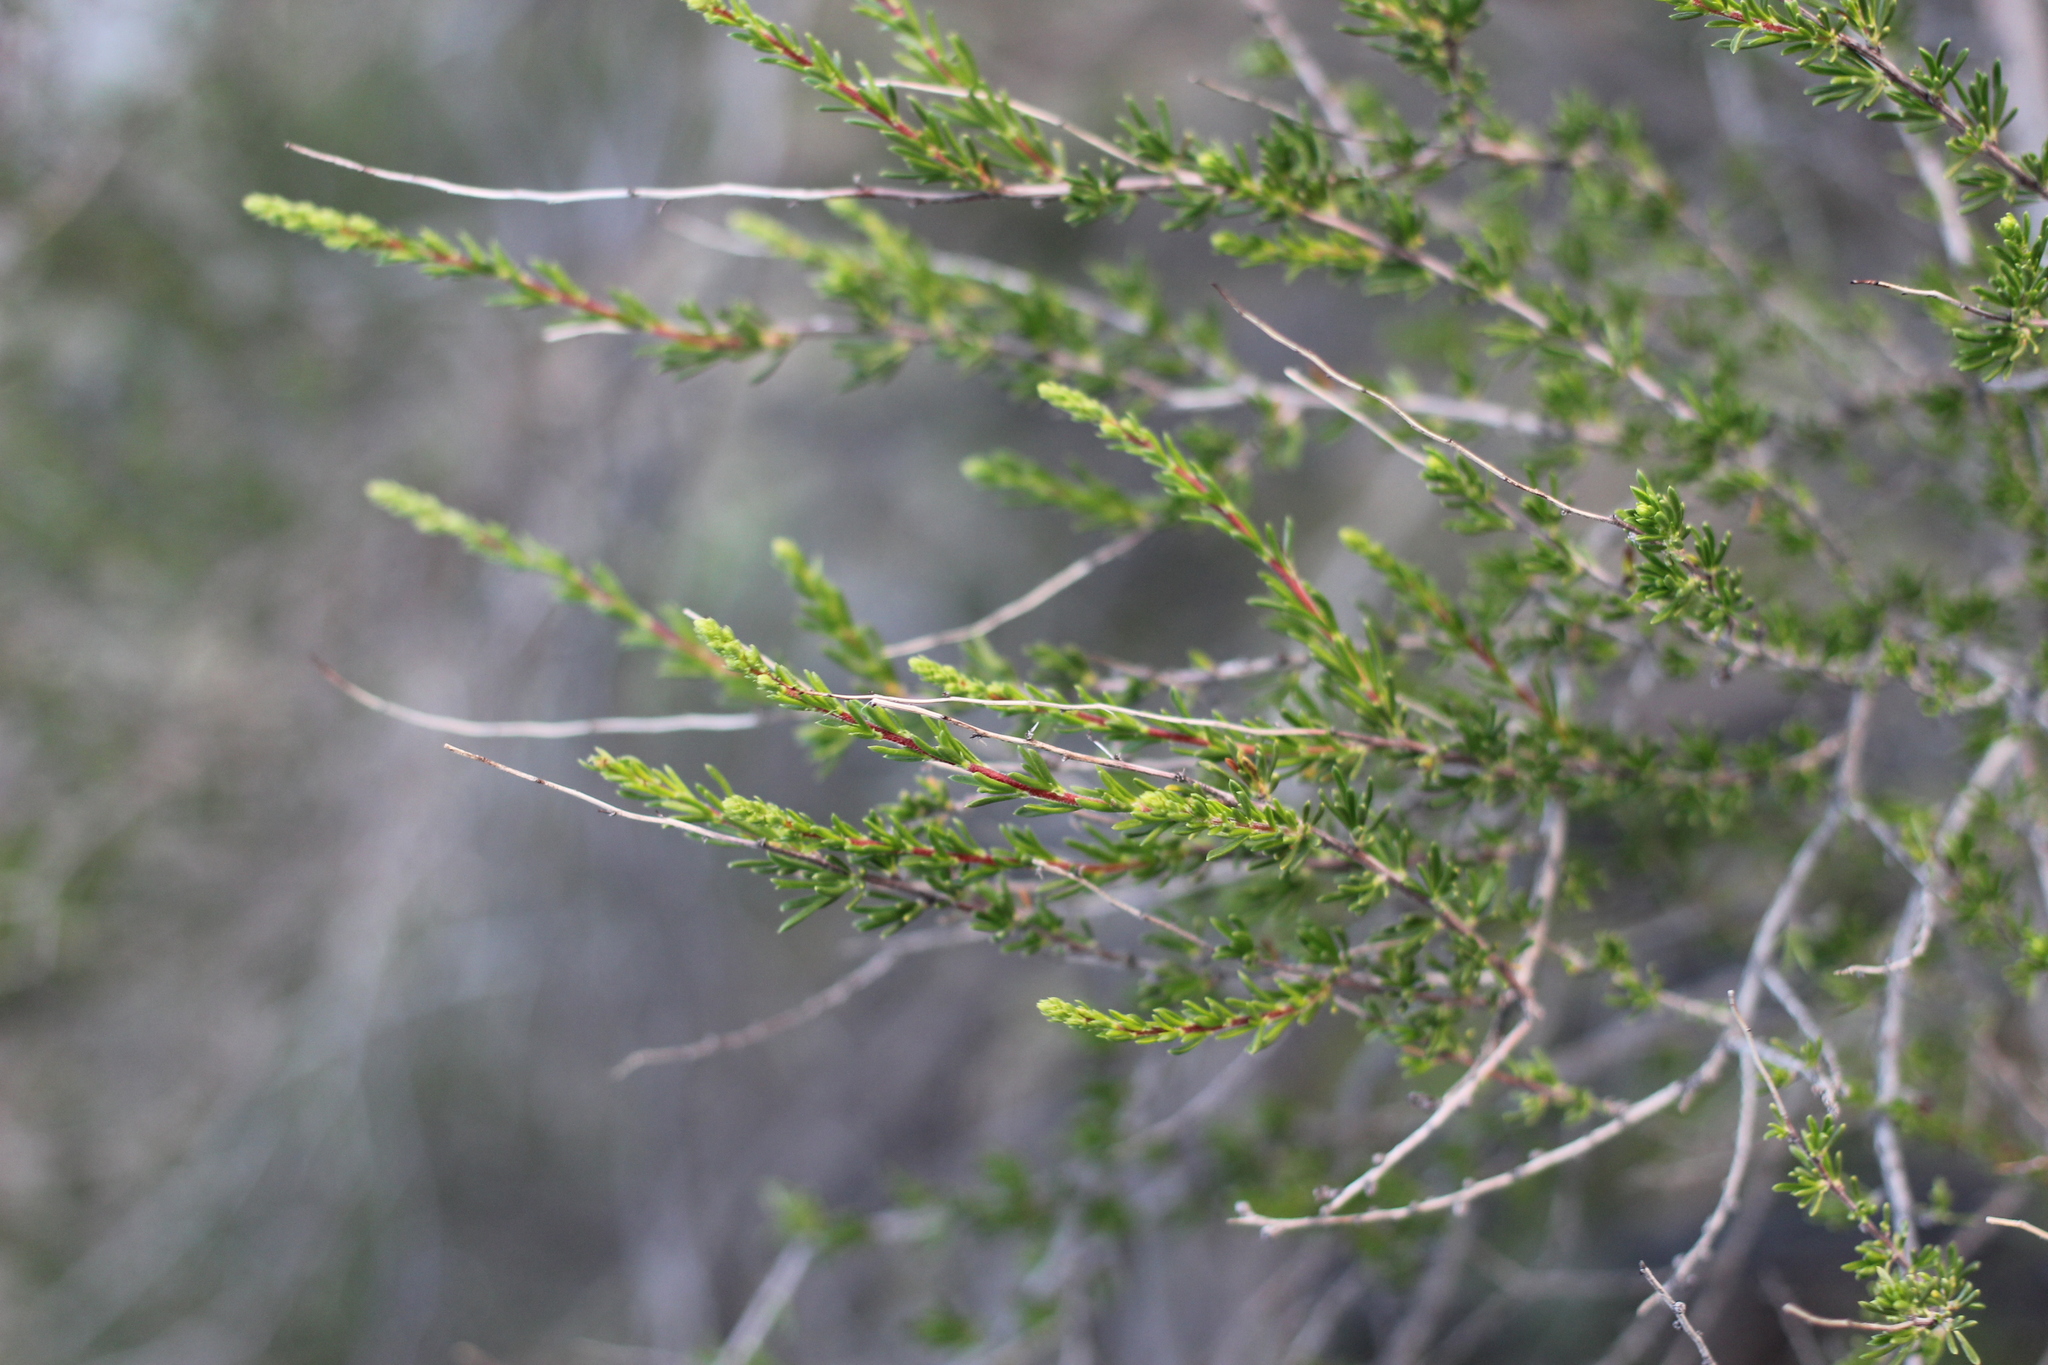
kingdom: Plantae
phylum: Tracheophyta
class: Magnoliopsida
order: Rosales
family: Rosaceae
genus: Adenostoma
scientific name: Adenostoma fasciculatum
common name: Chamise
